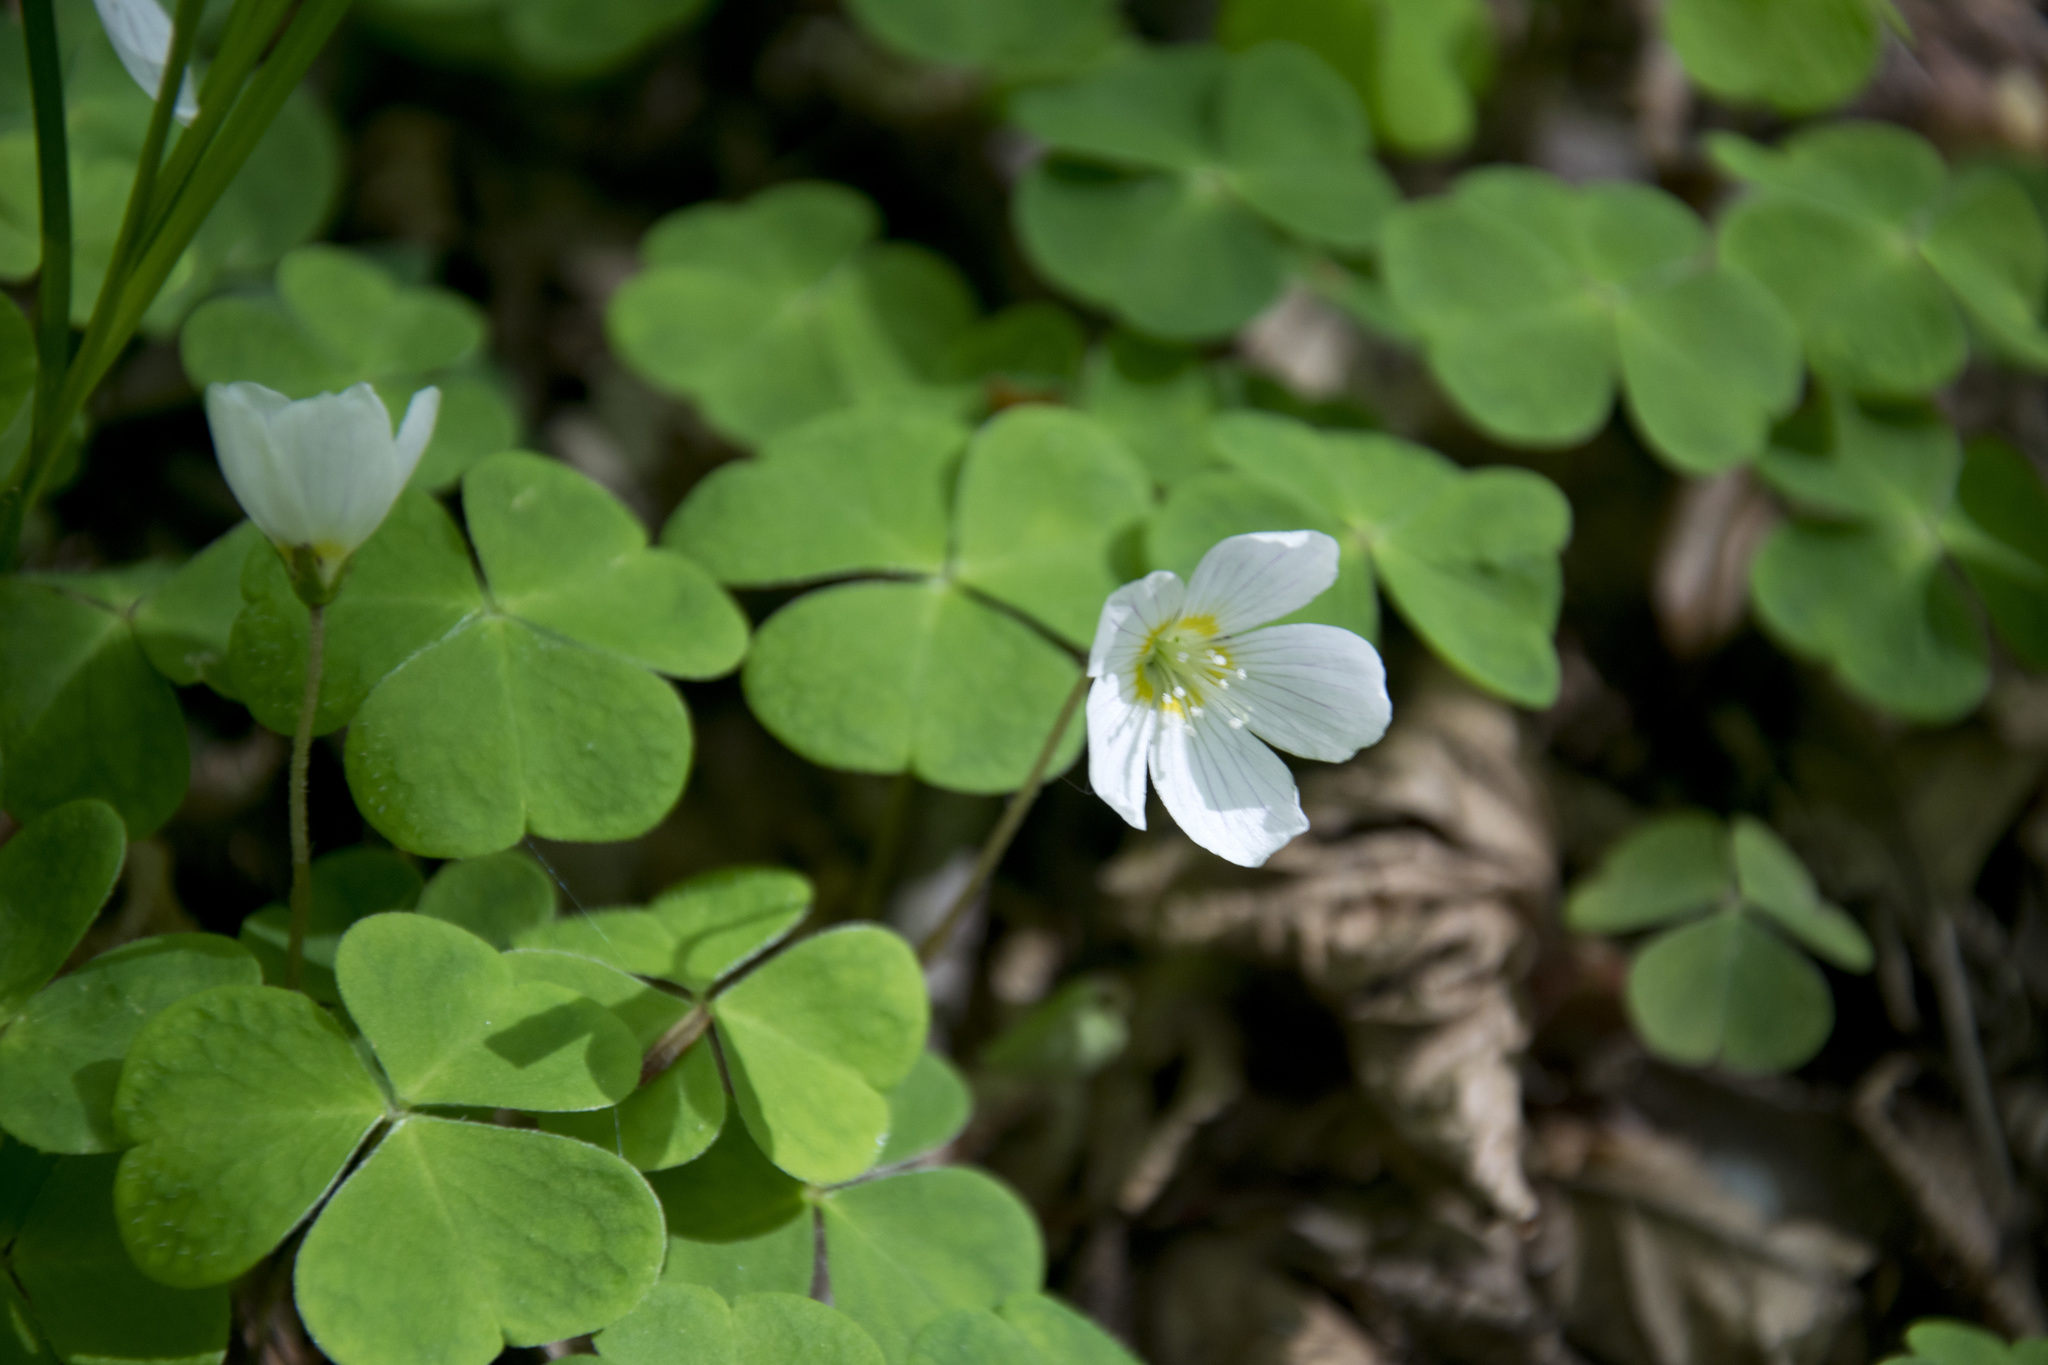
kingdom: Plantae
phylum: Tracheophyta
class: Magnoliopsida
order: Oxalidales
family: Oxalidaceae
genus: Oxalis
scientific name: Oxalis acetosella
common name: Wood-sorrel
